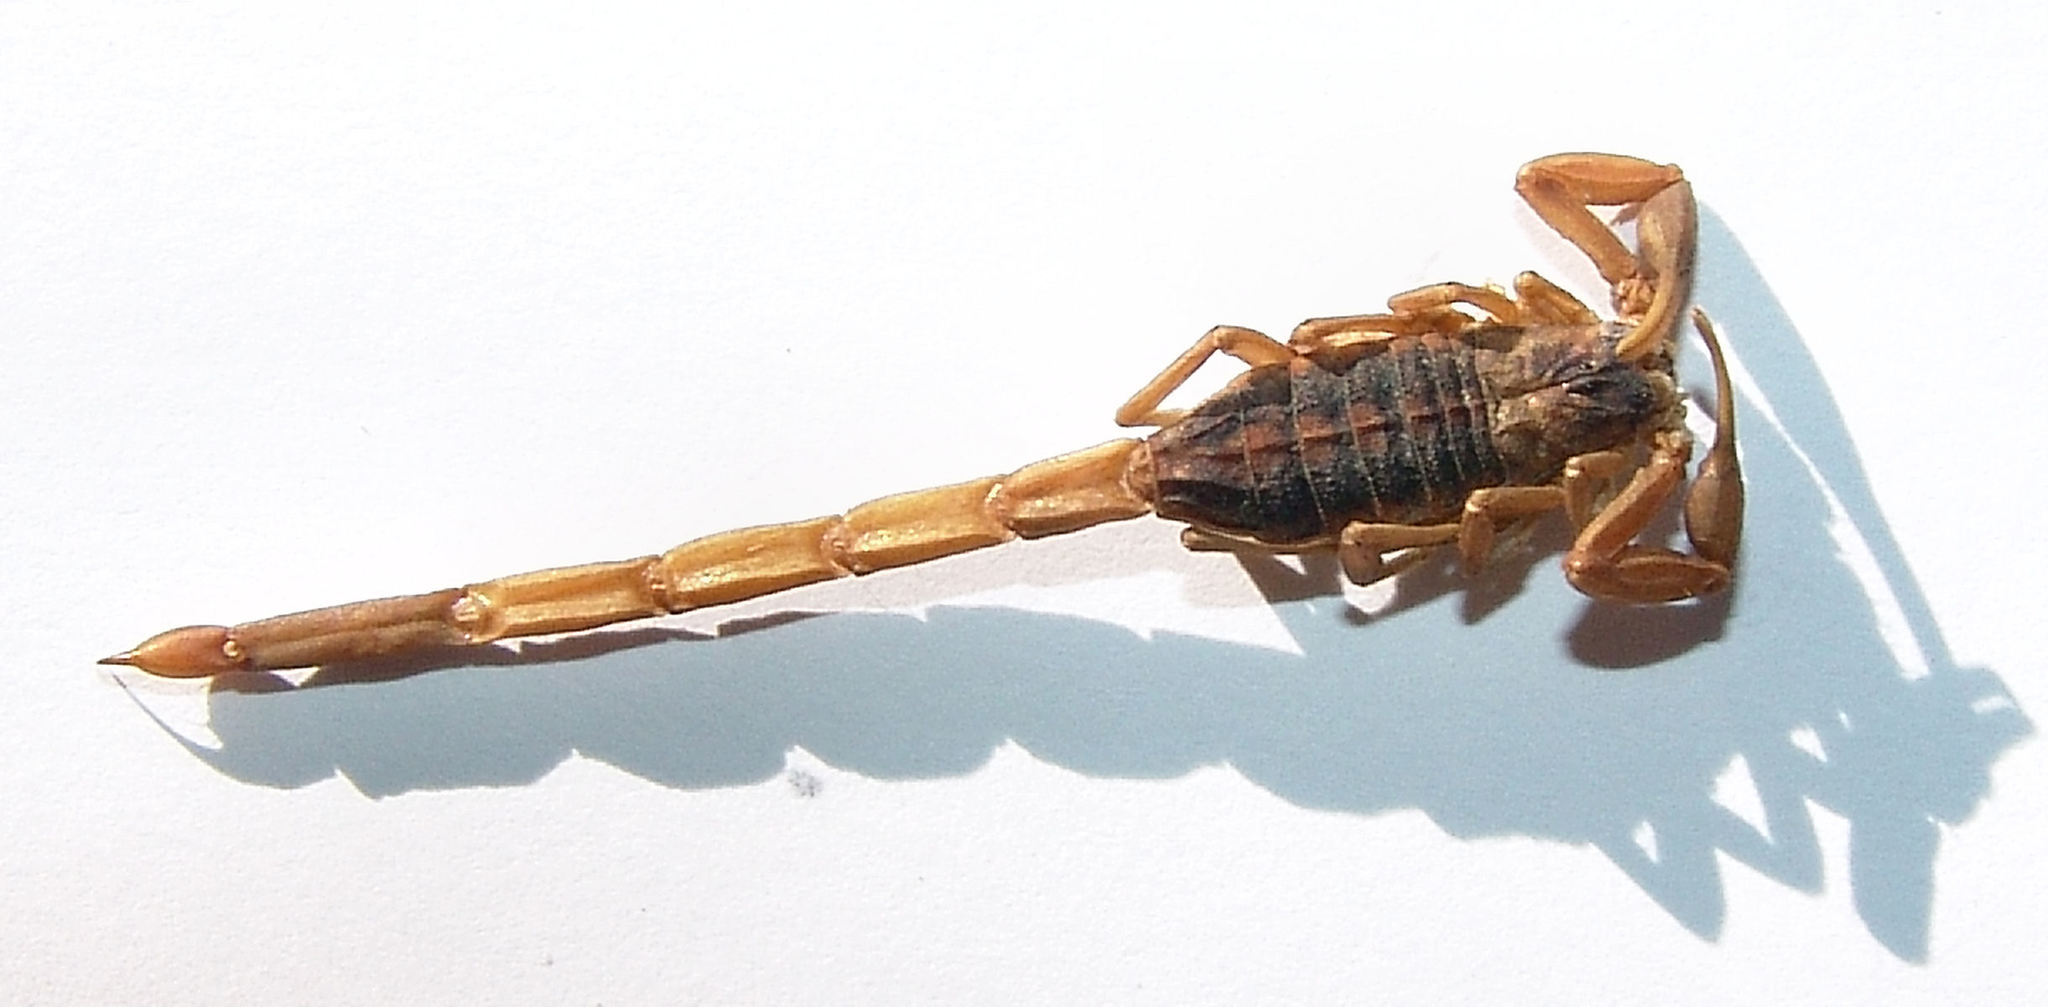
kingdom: Animalia
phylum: Arthropoda
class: Arachnida
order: Scorpiones
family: Buthidae
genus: Centruroides
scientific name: Centruroides vittatus
